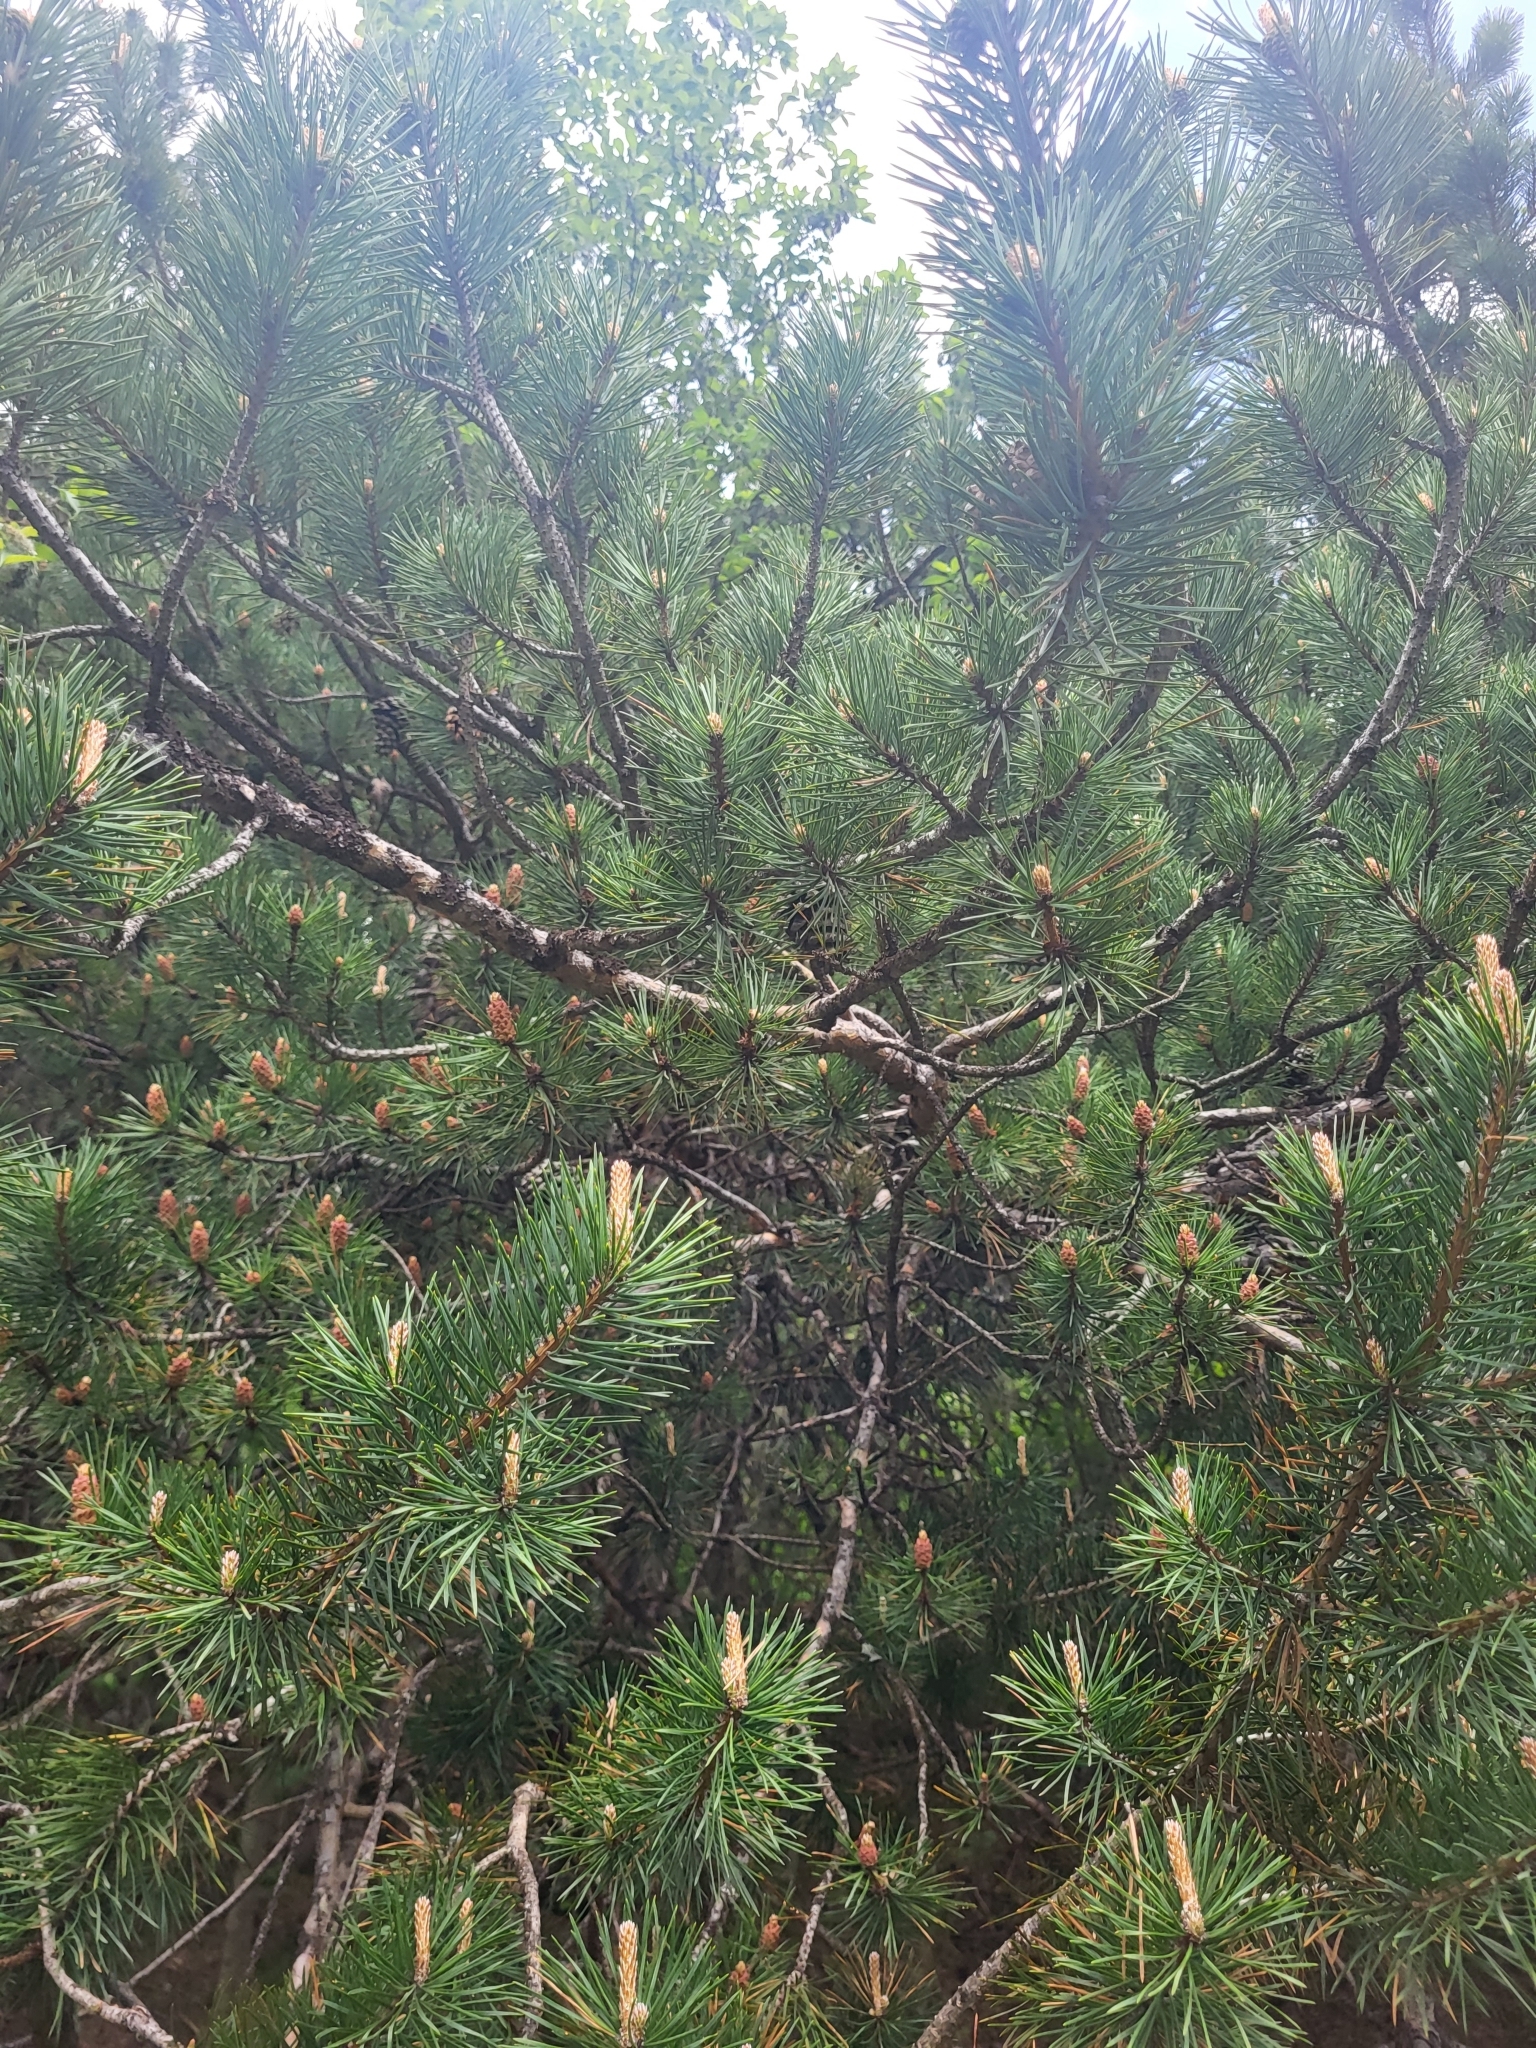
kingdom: Plantae
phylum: Tracheophyta
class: Pinopsida
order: Pinales
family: Pinaceae
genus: Pinus
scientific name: Pinus sylvestris
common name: Scots pine
